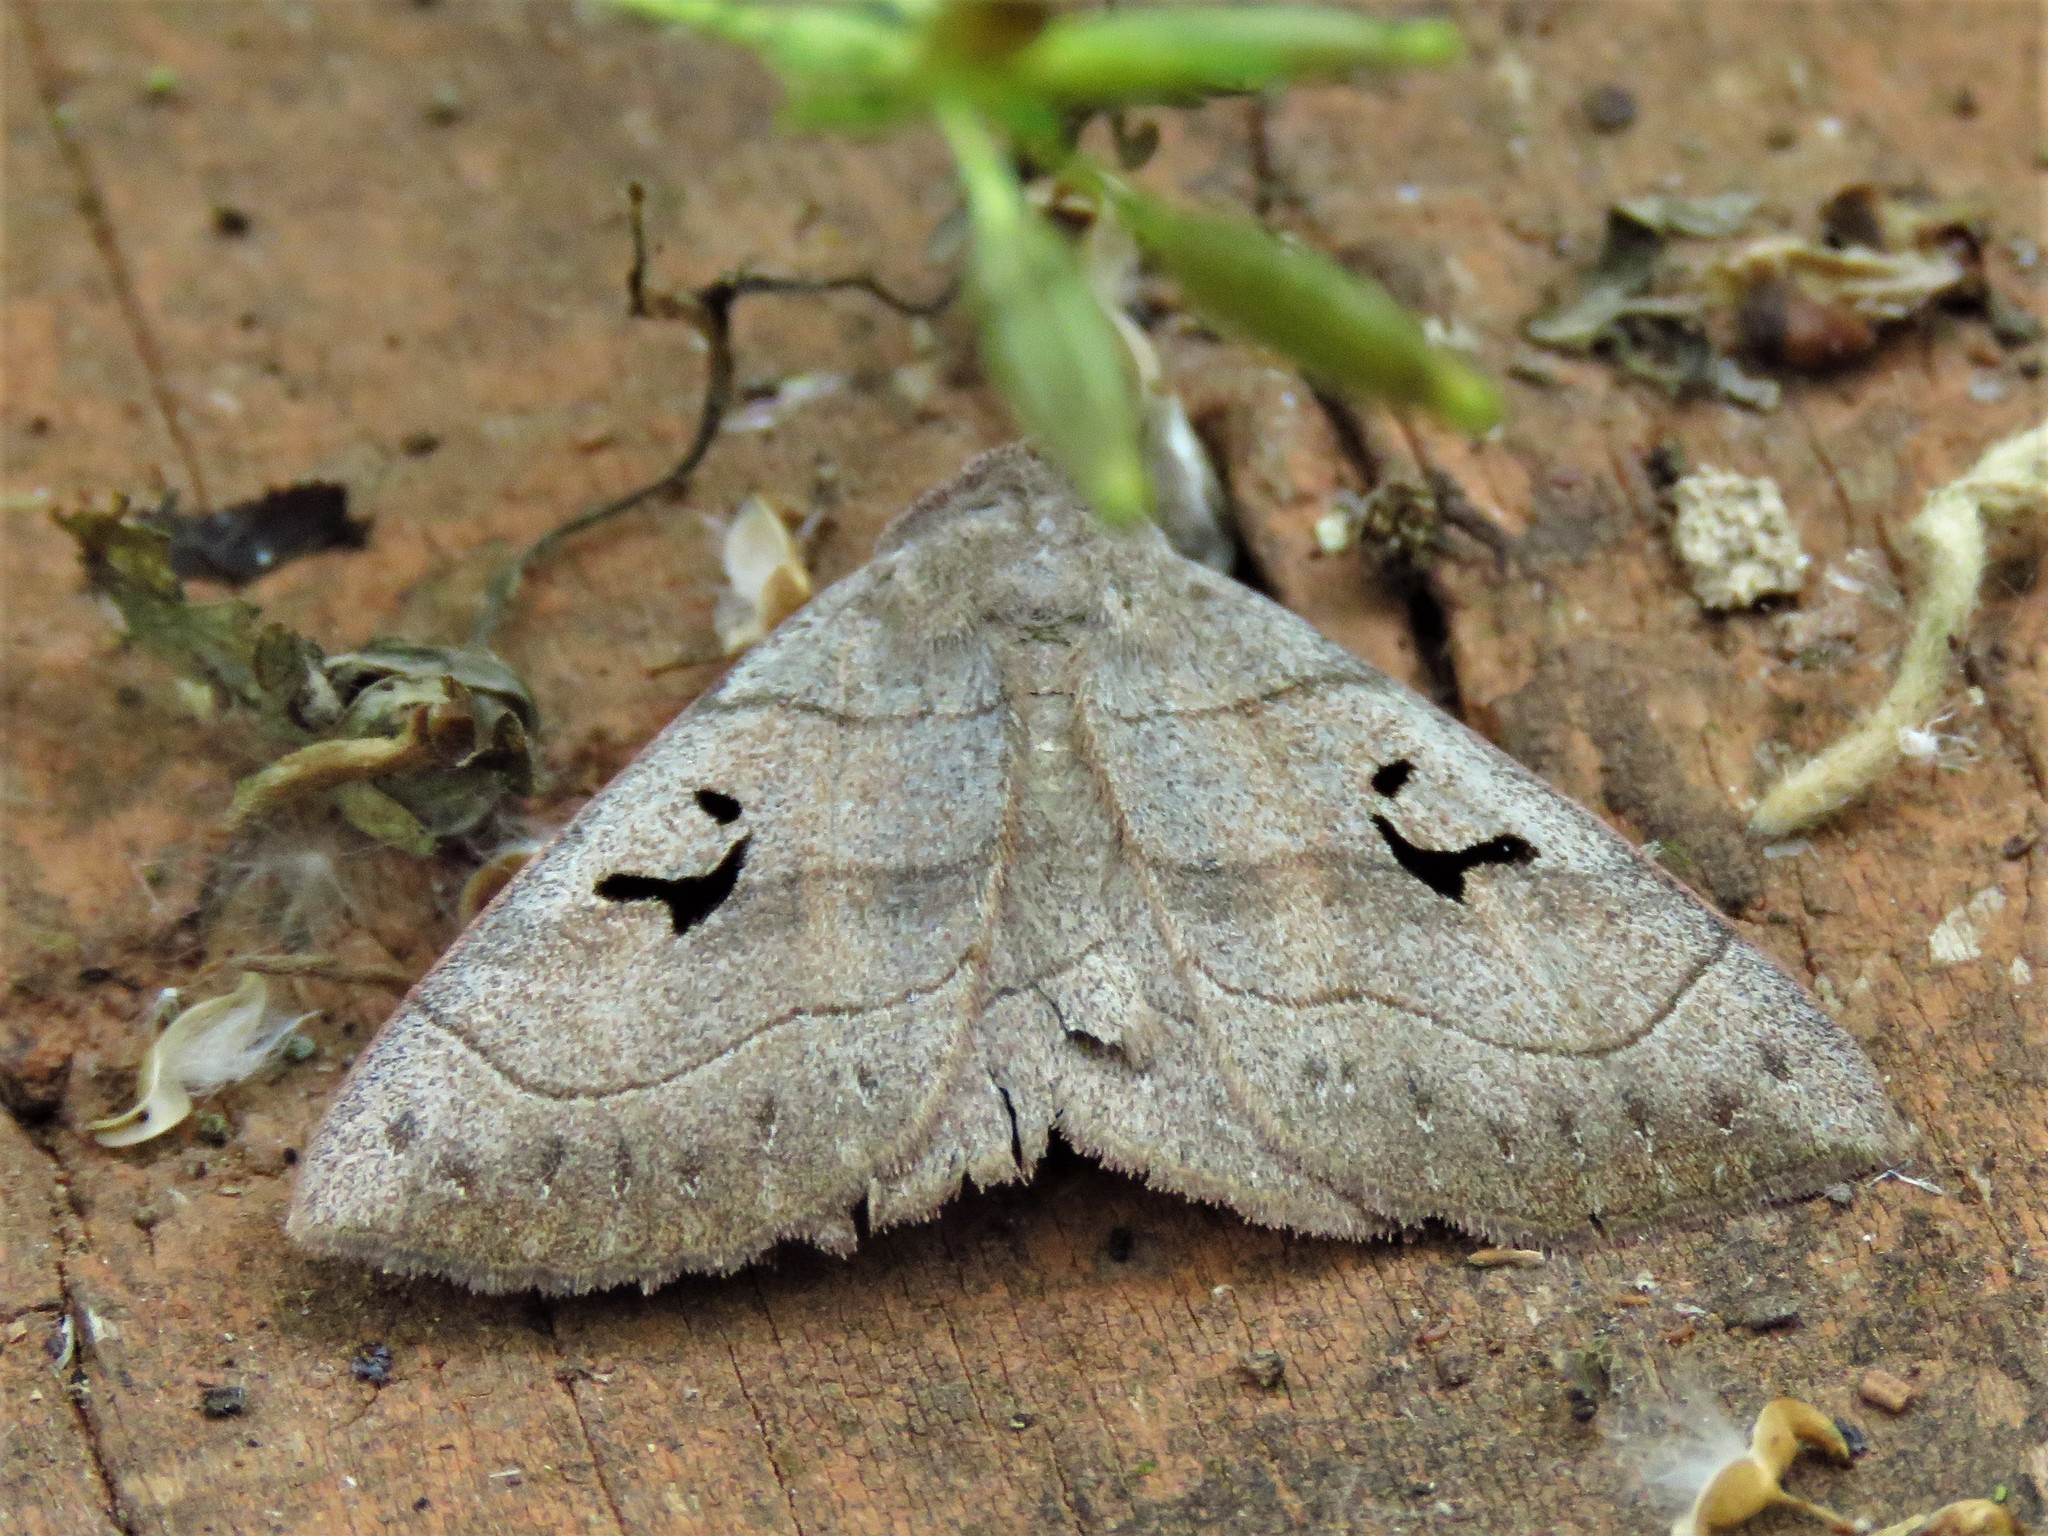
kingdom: Animalia
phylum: Arthropoda
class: Insecta
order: Lepidoptera
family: Erebidae
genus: Panopoda
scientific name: Panopoda carneicosta
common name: Brown panopoda moth
